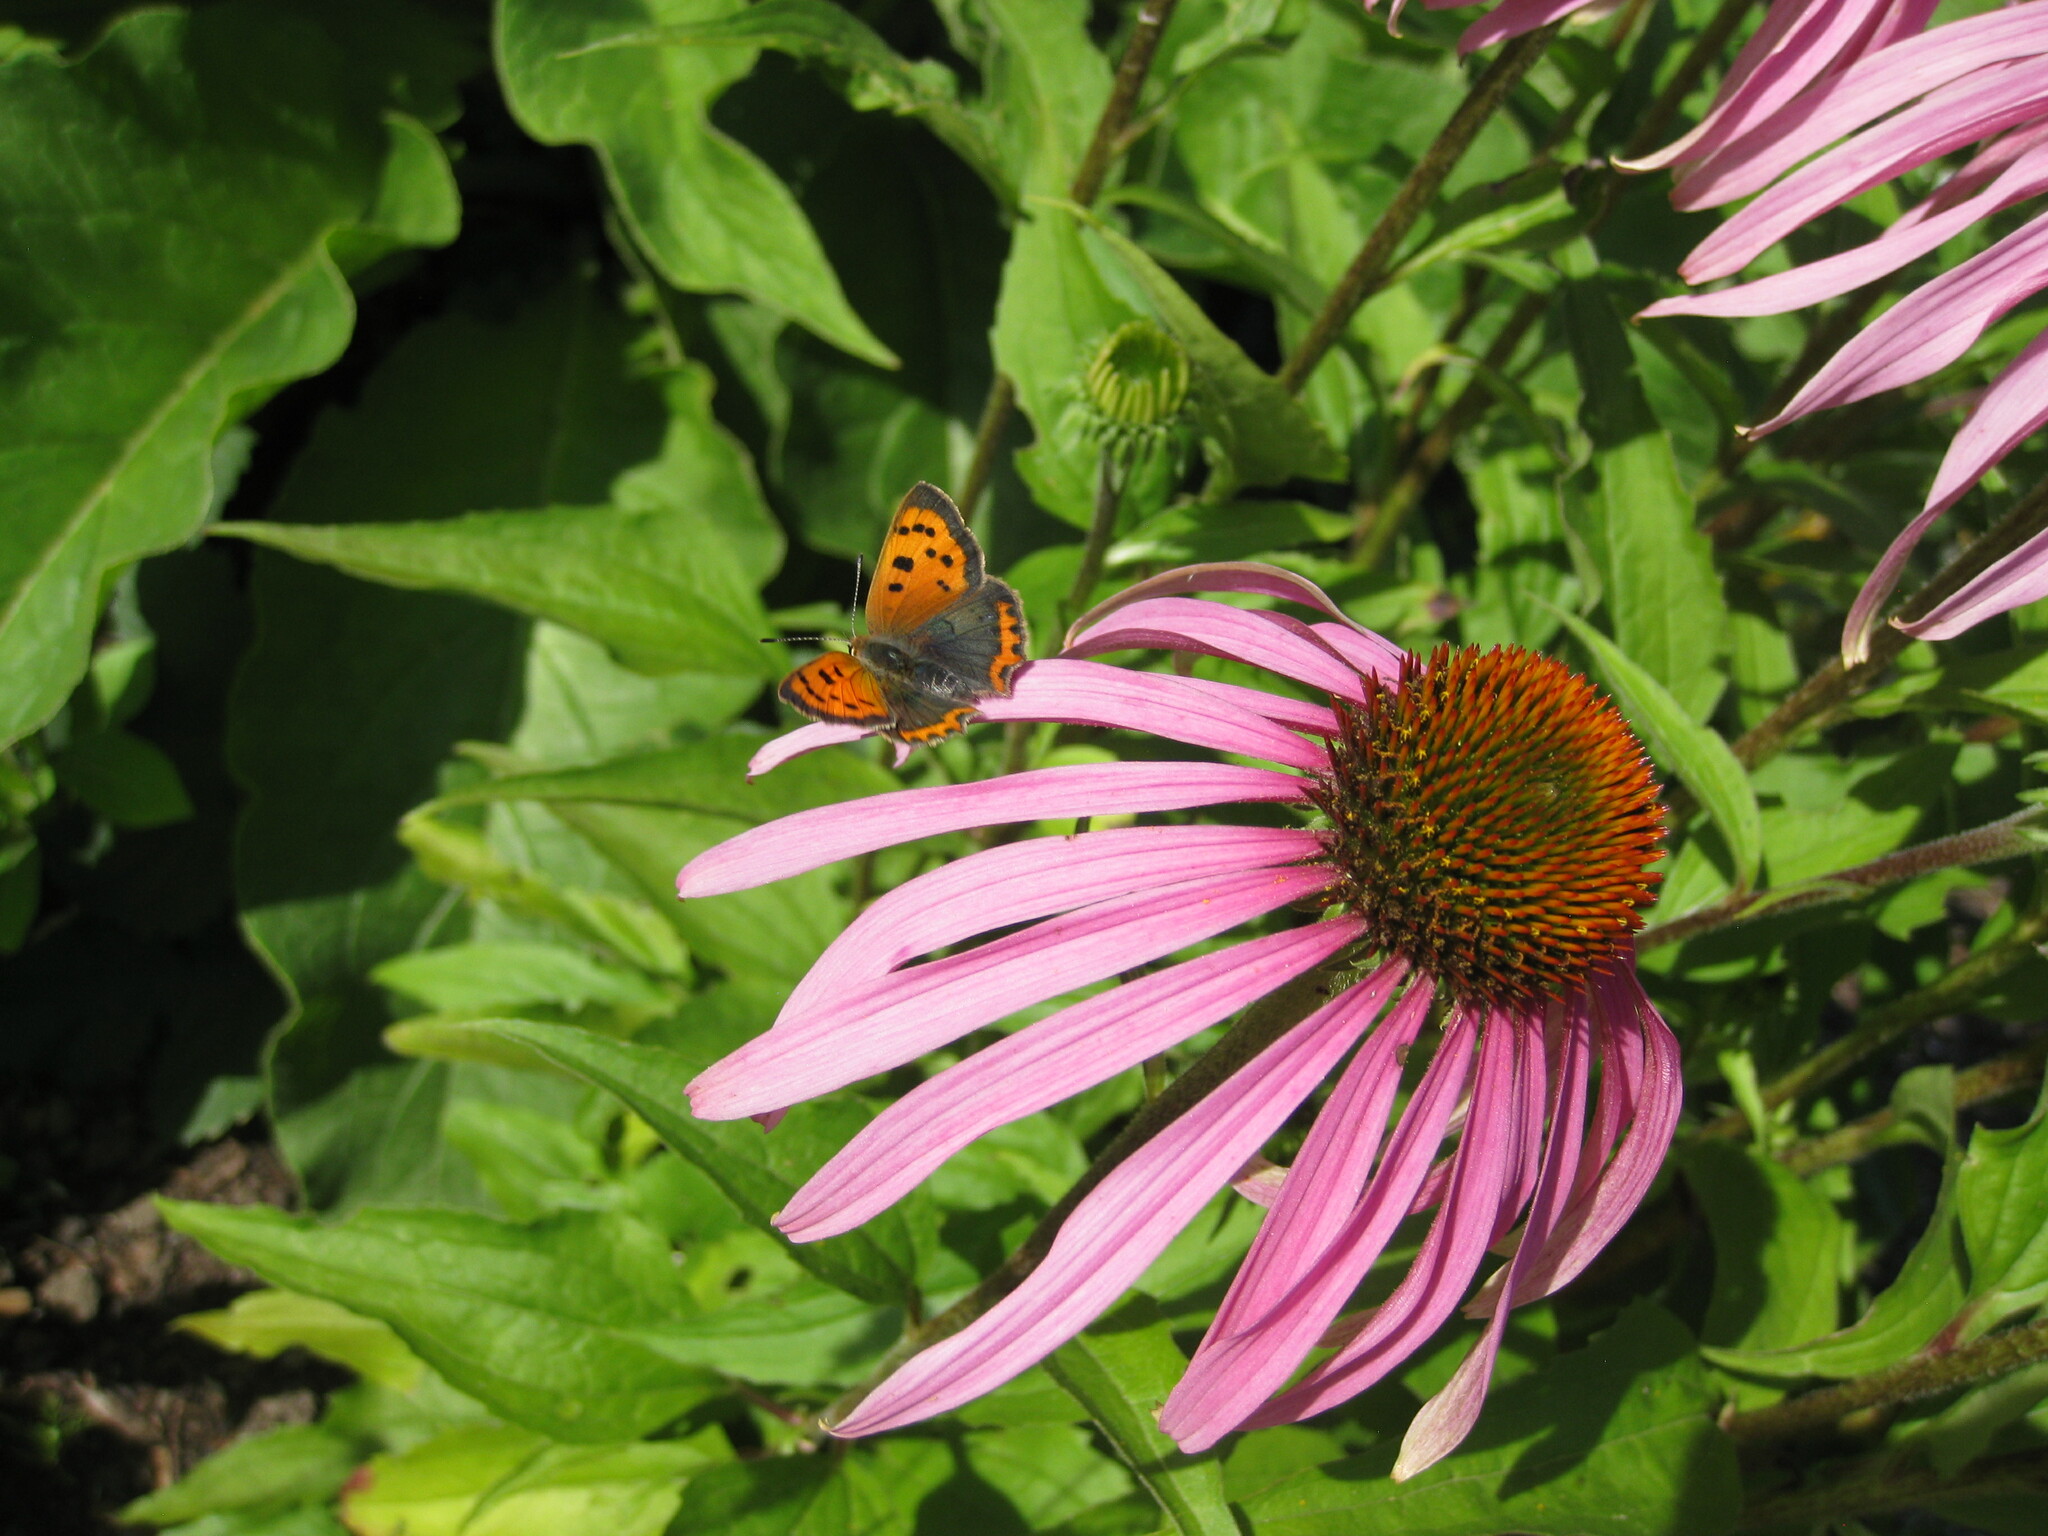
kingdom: Animalia
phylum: Arthropoda
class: Insecta
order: Lepidoptera
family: Lycaenidae
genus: Lycaena
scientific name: Lycaena phlaeas
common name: Small copper
